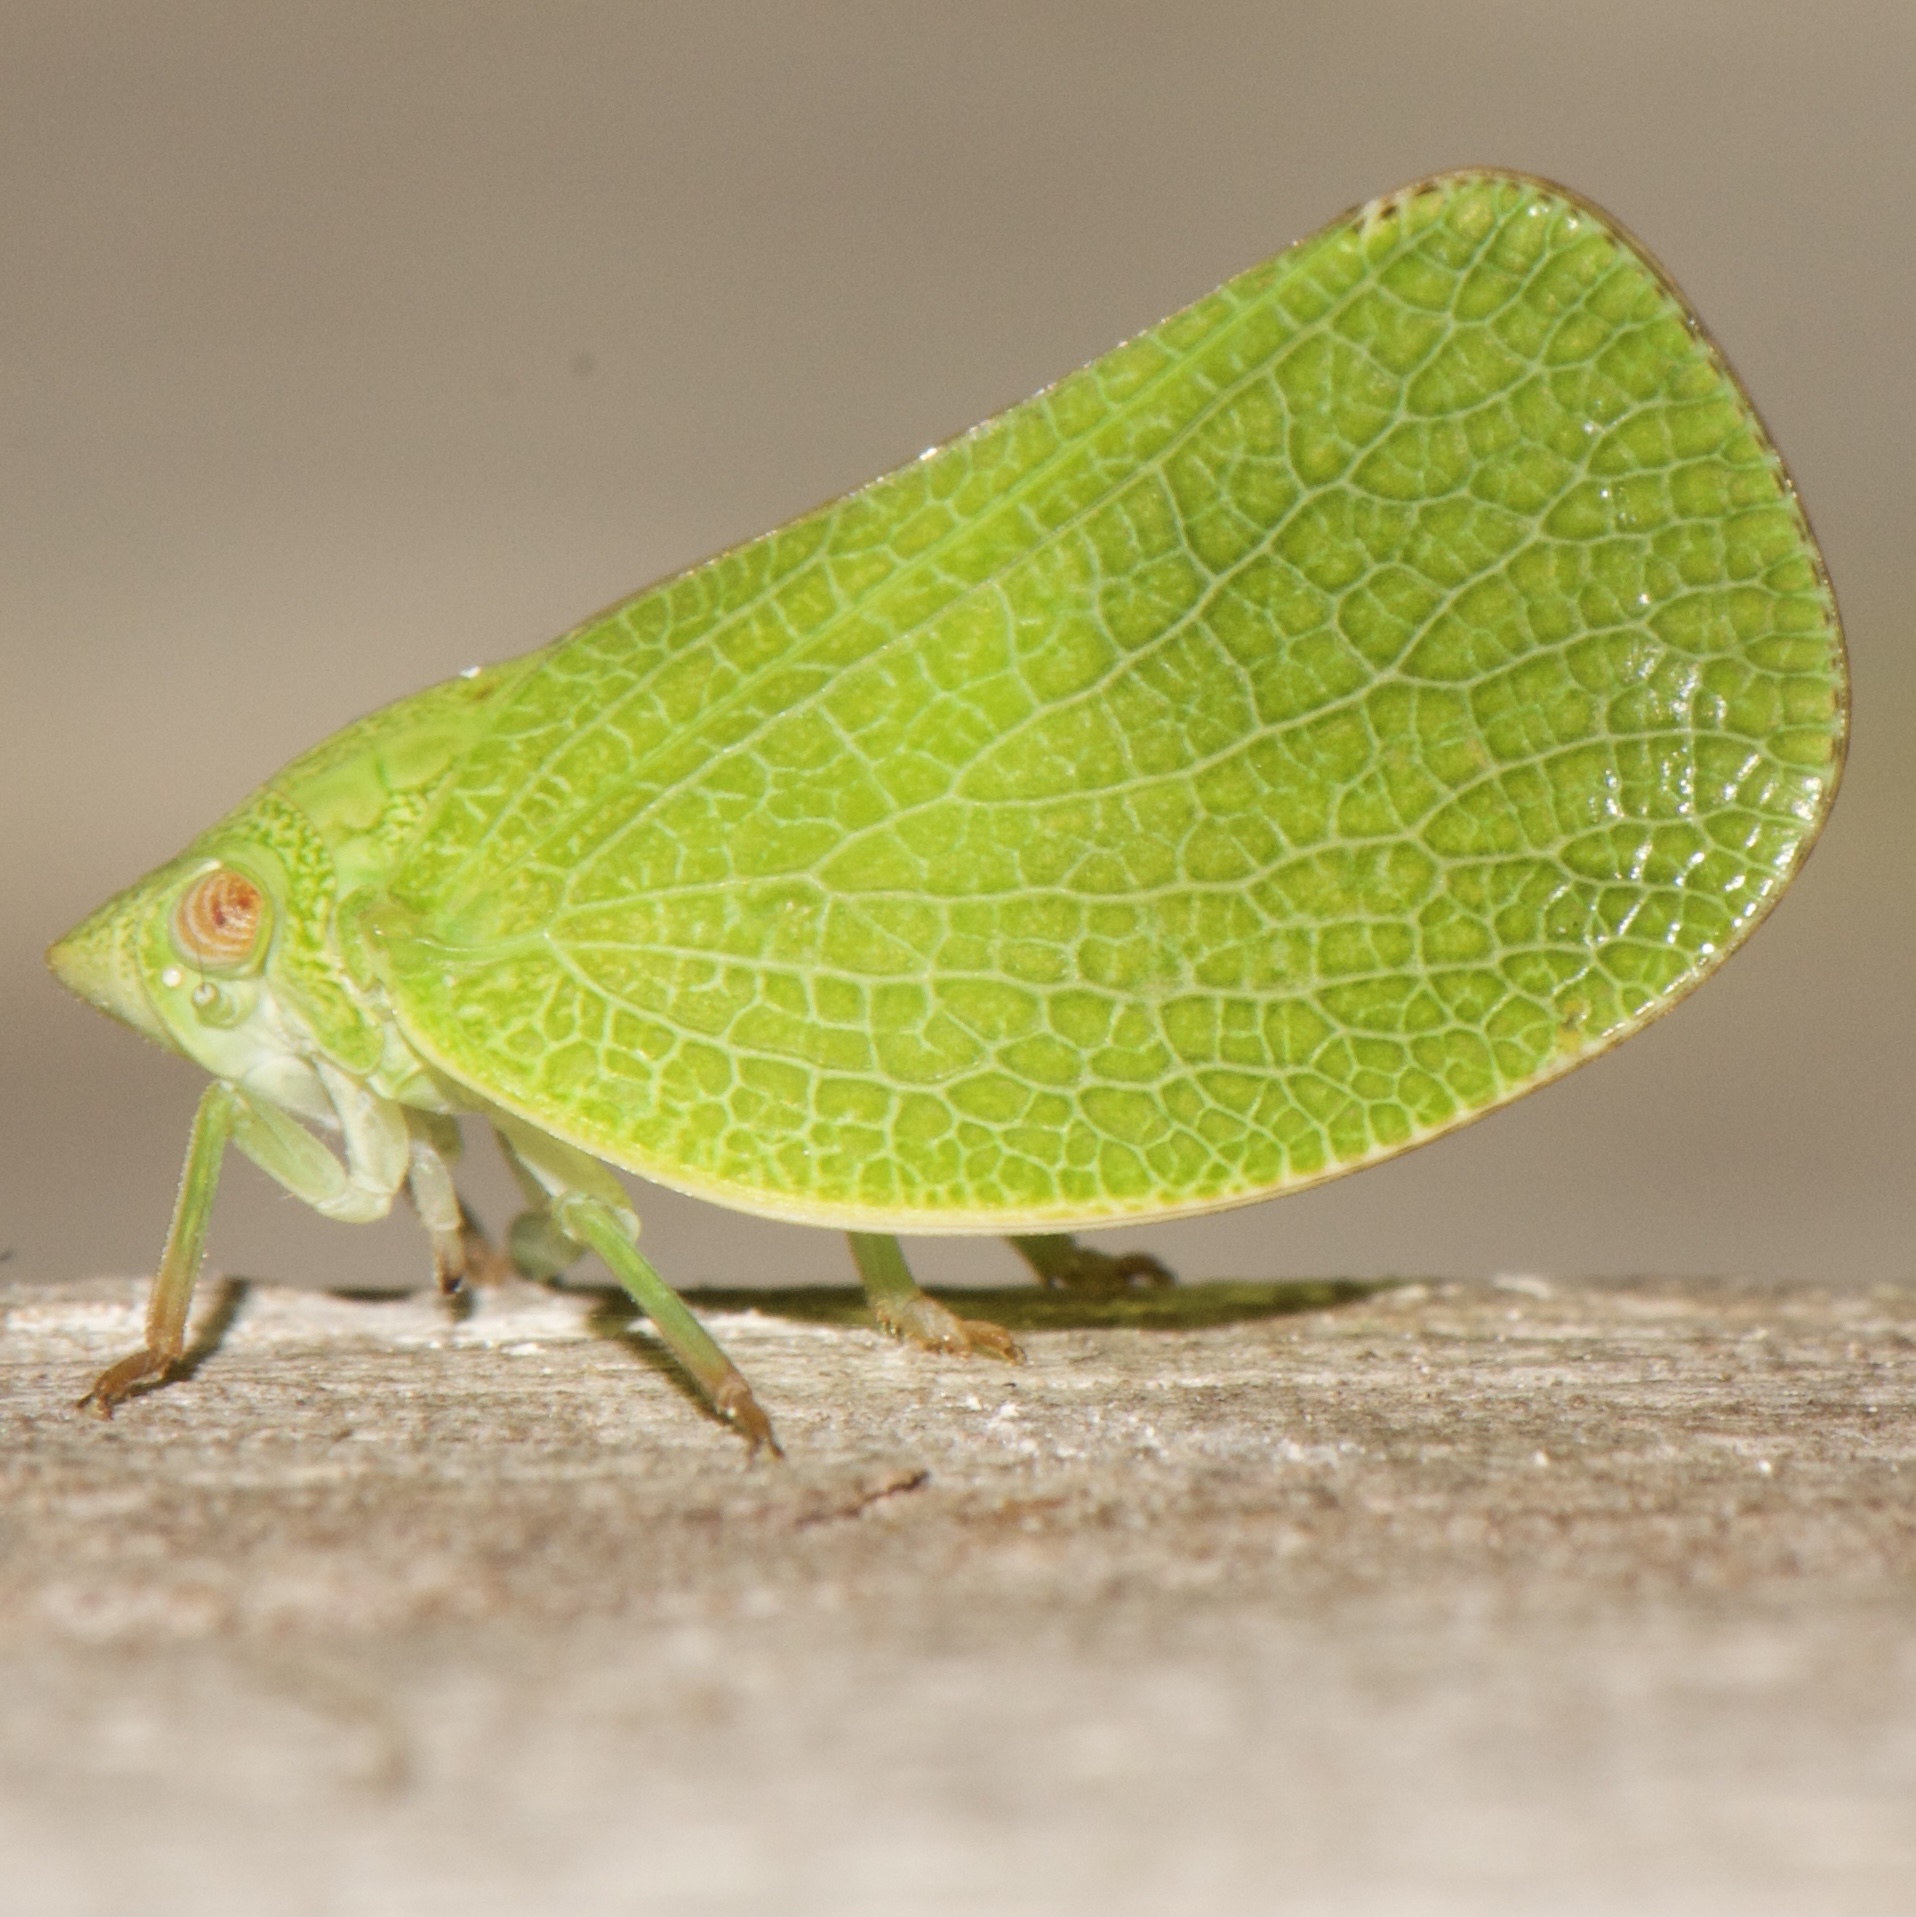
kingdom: Animalia
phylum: Arthropoda
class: Insecta
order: Hemiptera
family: Acanaloniidae
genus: Acanalonia
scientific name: Acanalonia conica
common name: Green cone-headed planthopper
